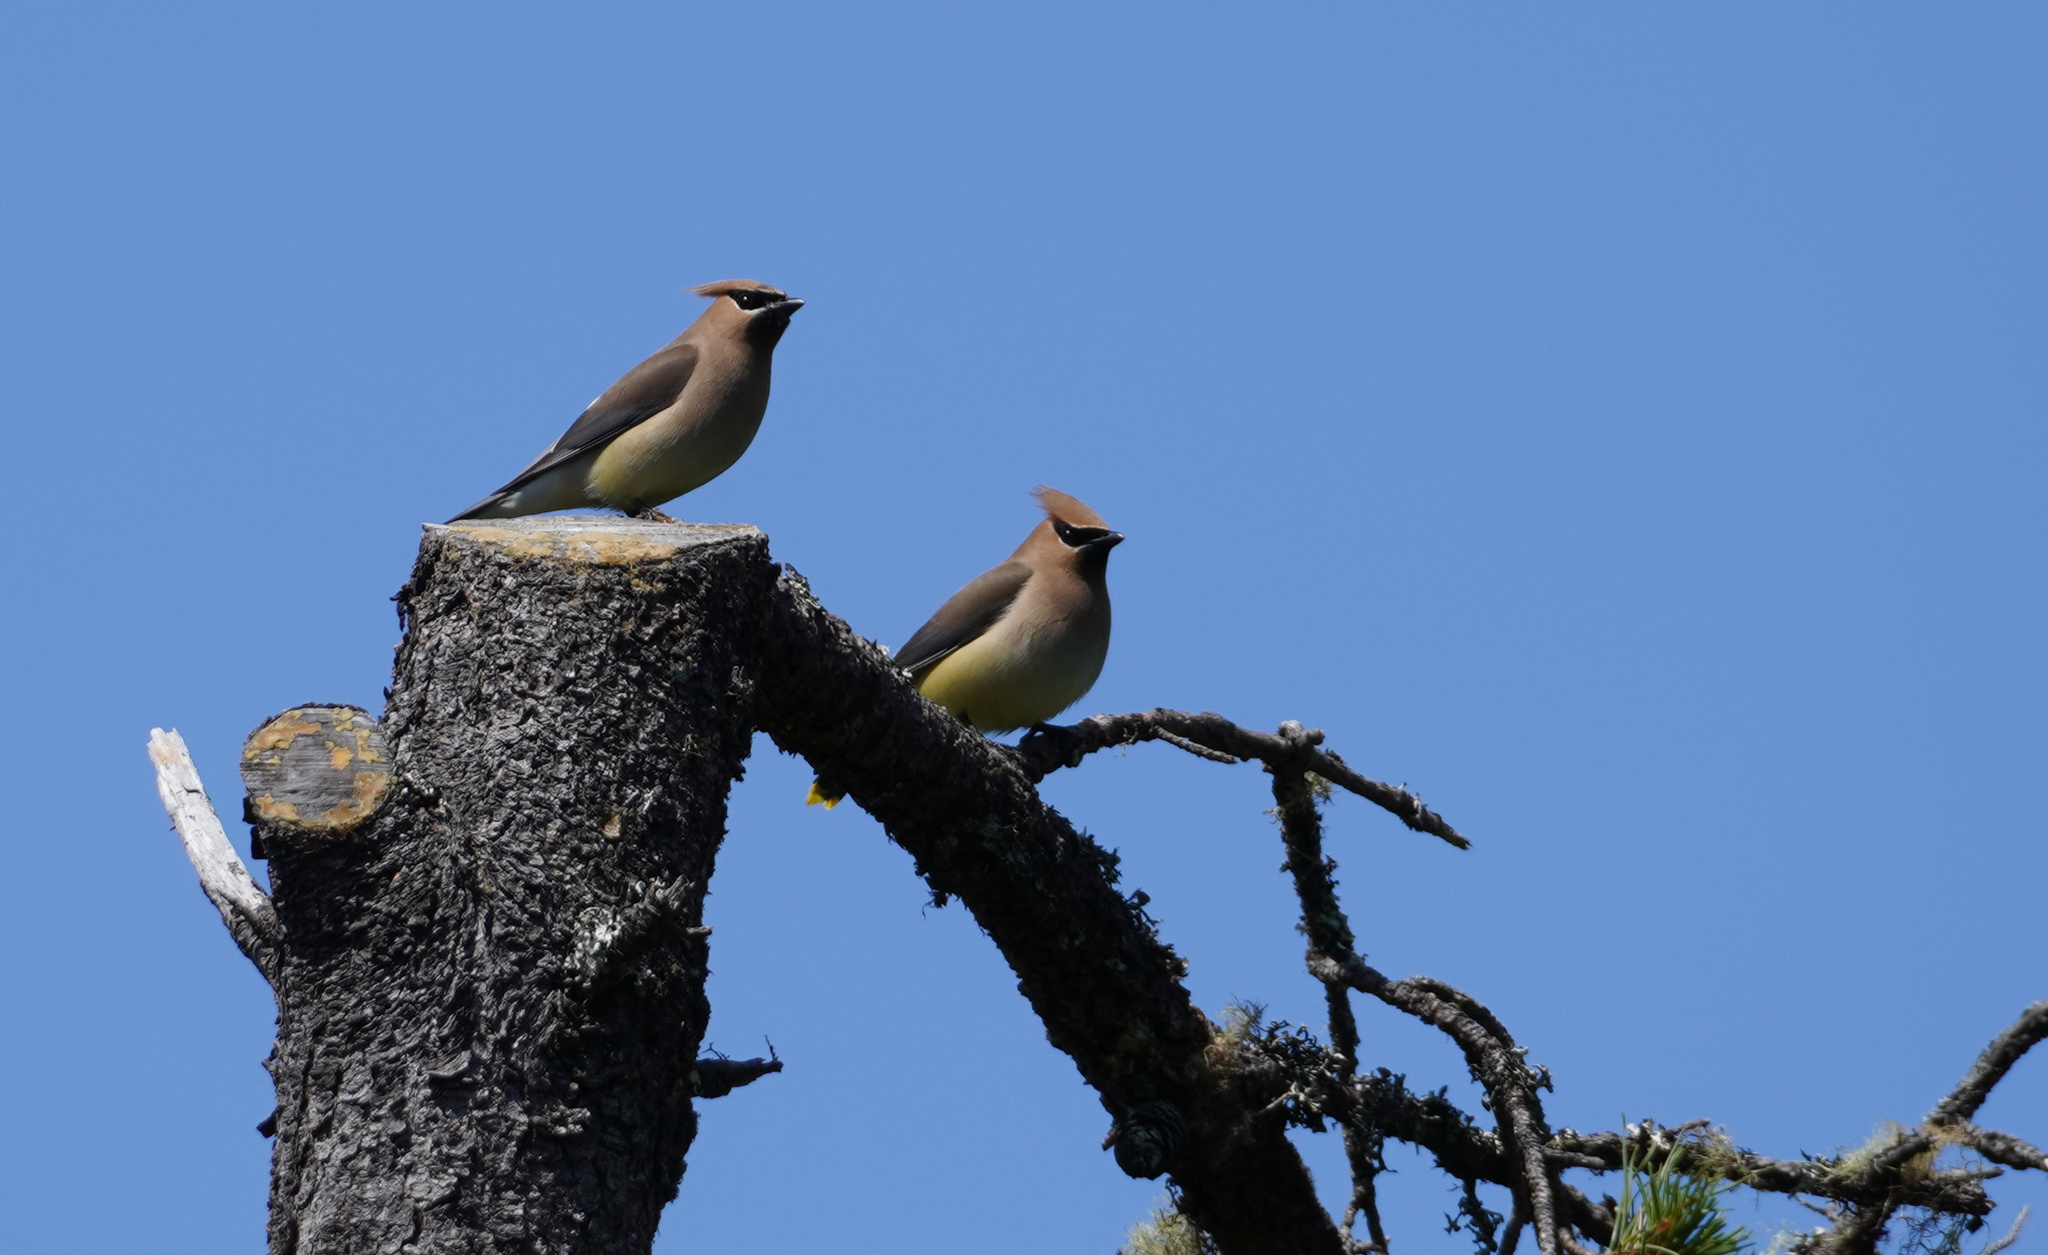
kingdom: Animalia
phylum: Chordata
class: Aves
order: Passeriformes
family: Bombycillidae
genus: Bombycilla
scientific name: Bombycilla cedrorum
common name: Cedar waxwing
